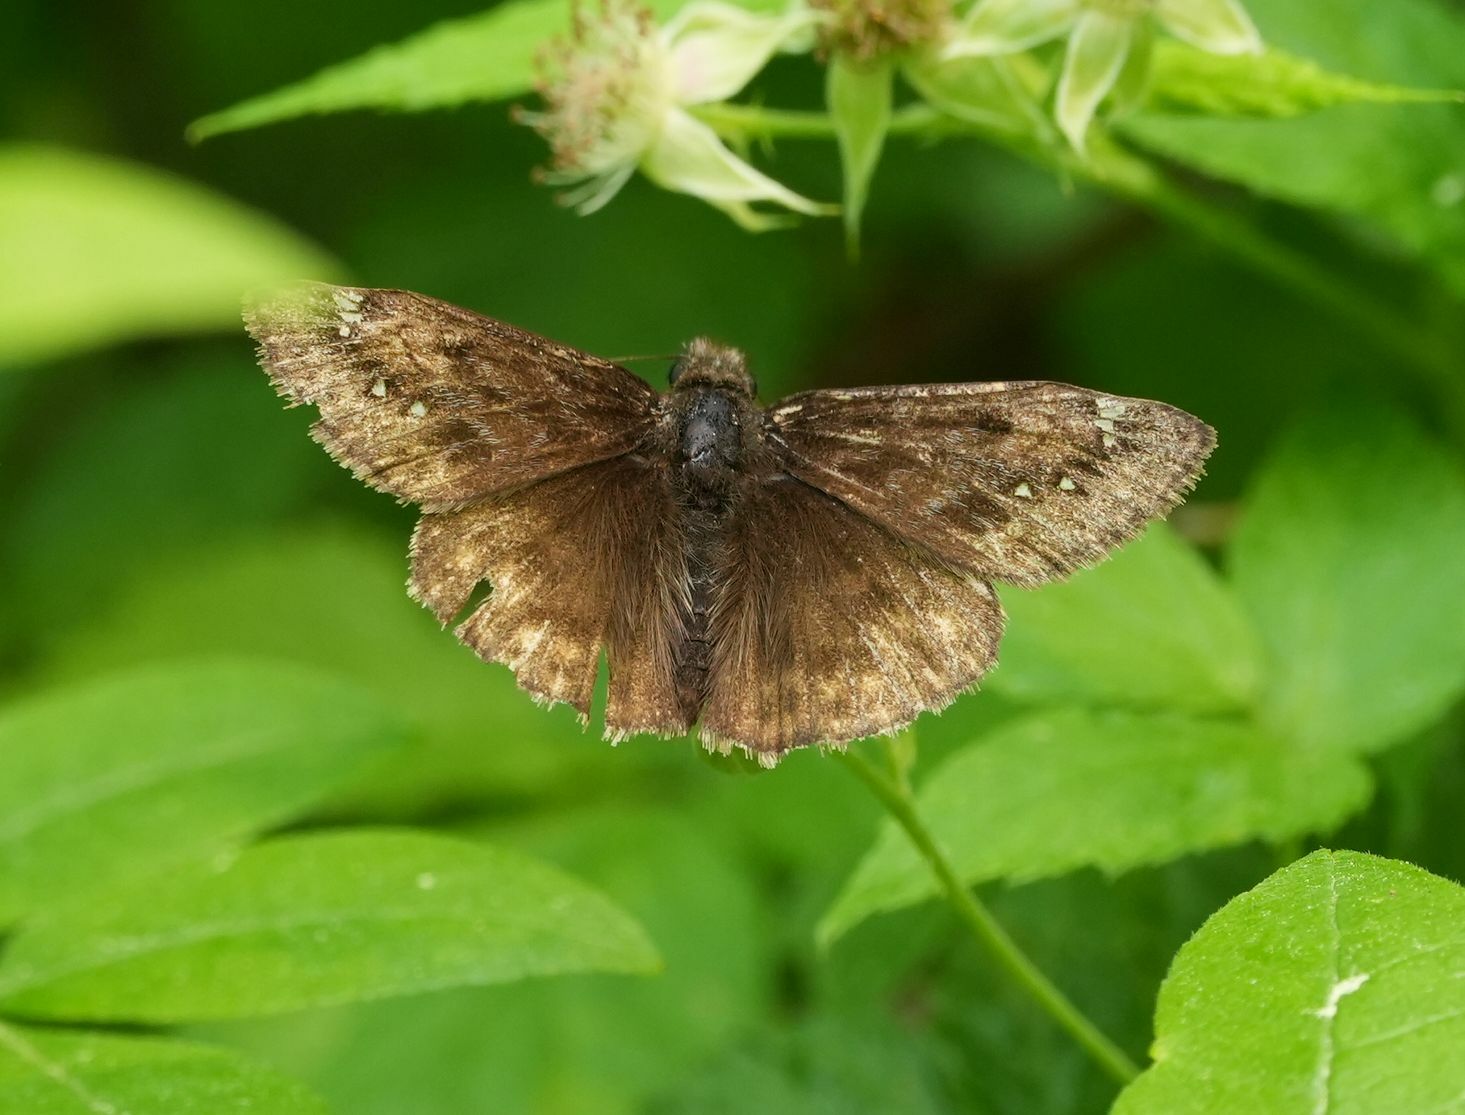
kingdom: Animalia
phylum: Arthropoda
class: Insecta
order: Lepidoptera
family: Hesperiidae
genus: Erynnis
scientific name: Erynnis juvenalis
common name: Juvenal's duskywing
